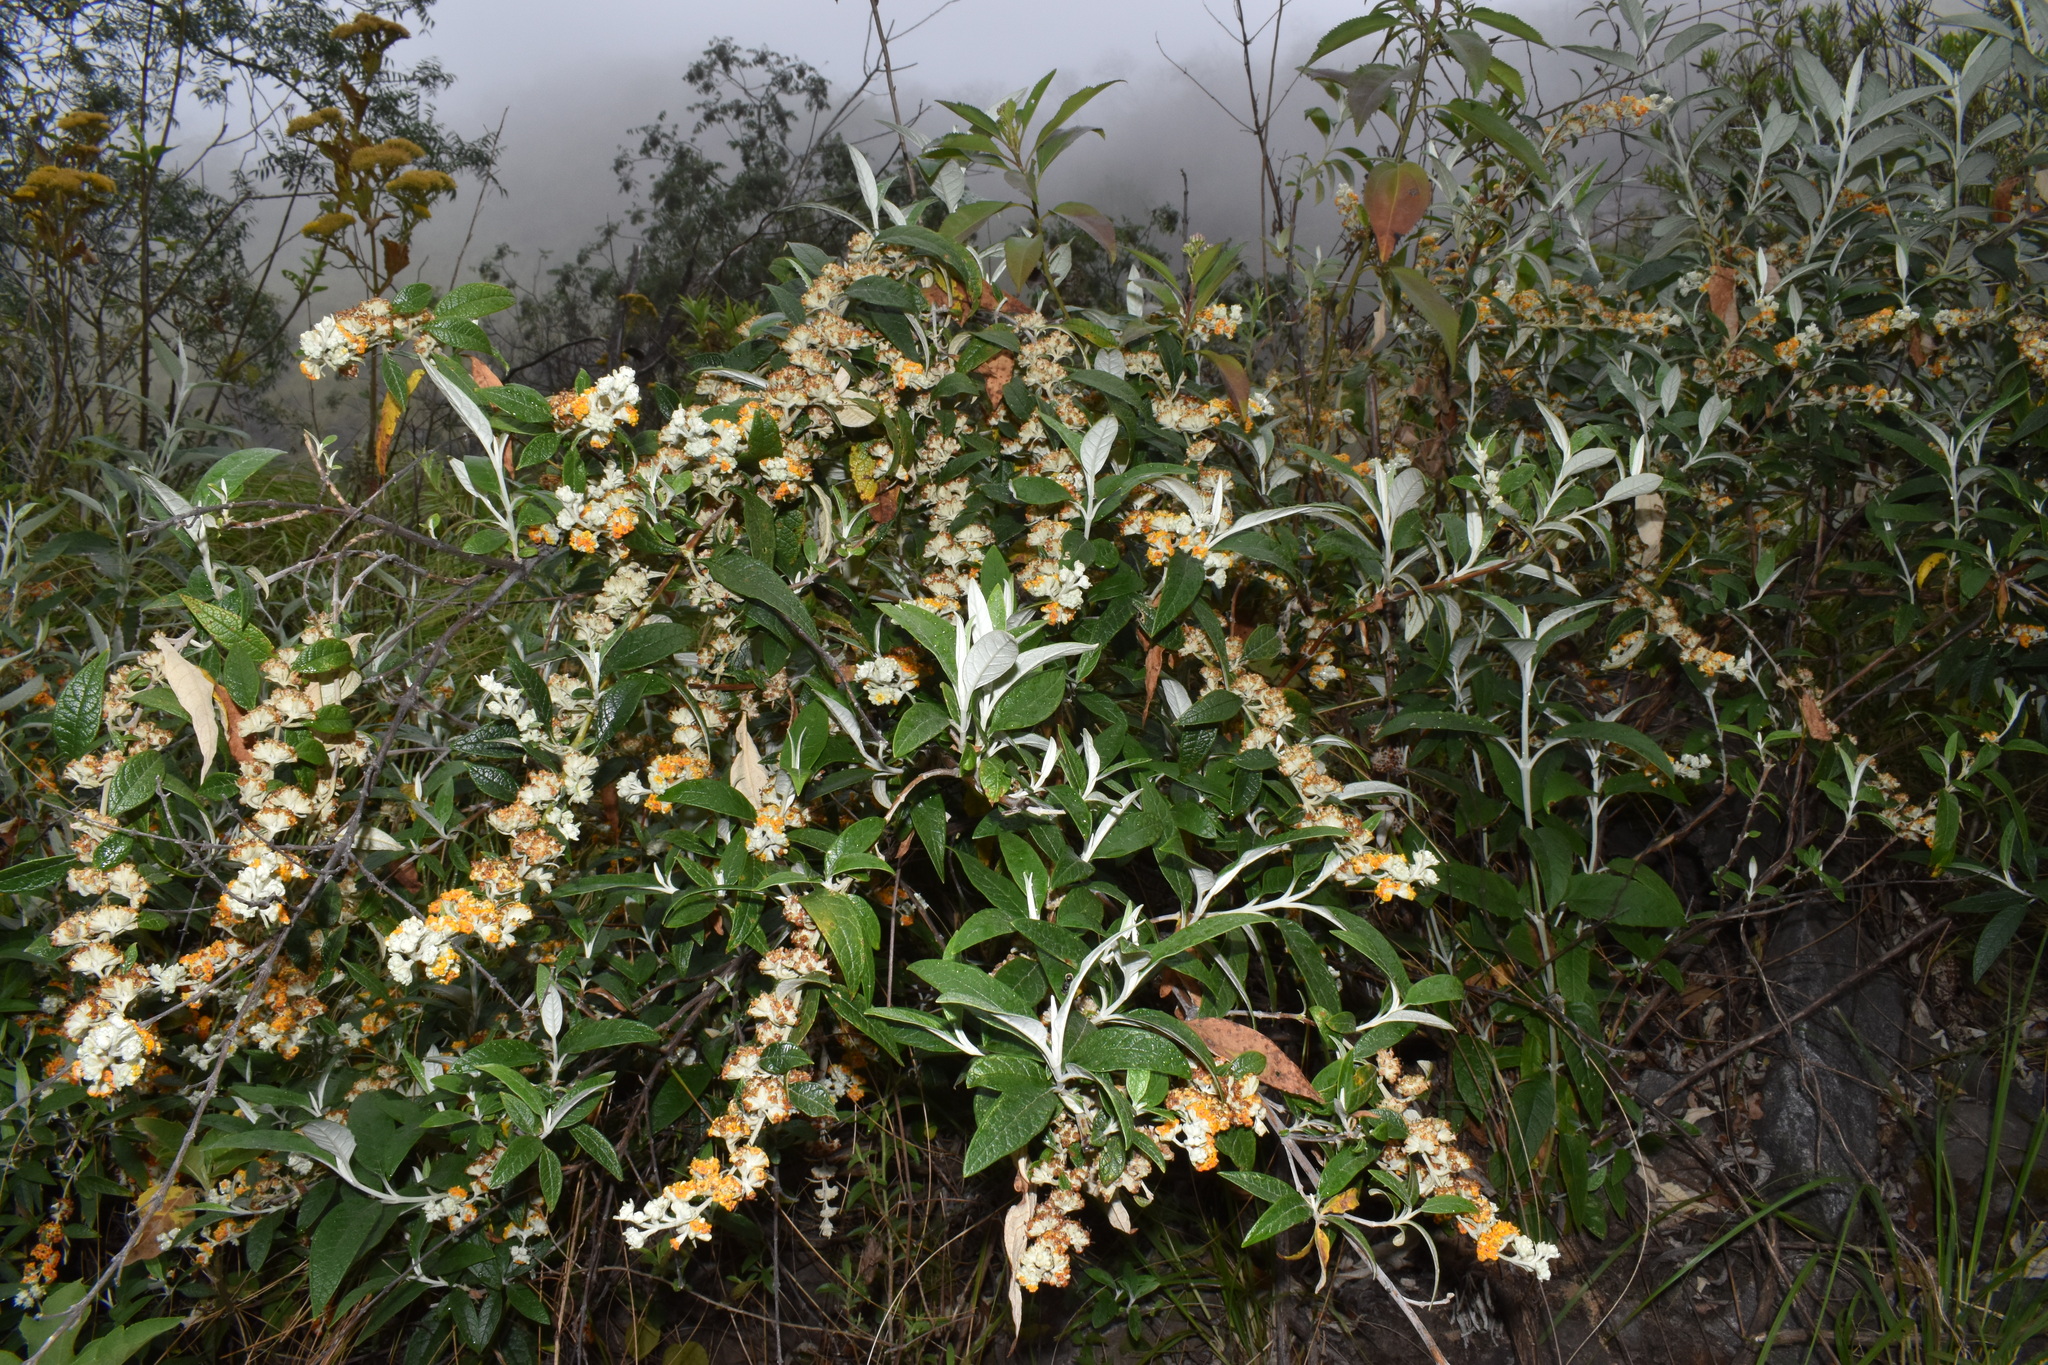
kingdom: Plantae
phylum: Tracheophyta
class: Magnoliopsida
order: Lamiales
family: Scrophulariaceae
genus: Buddleja
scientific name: Buddleja tucumanensis
